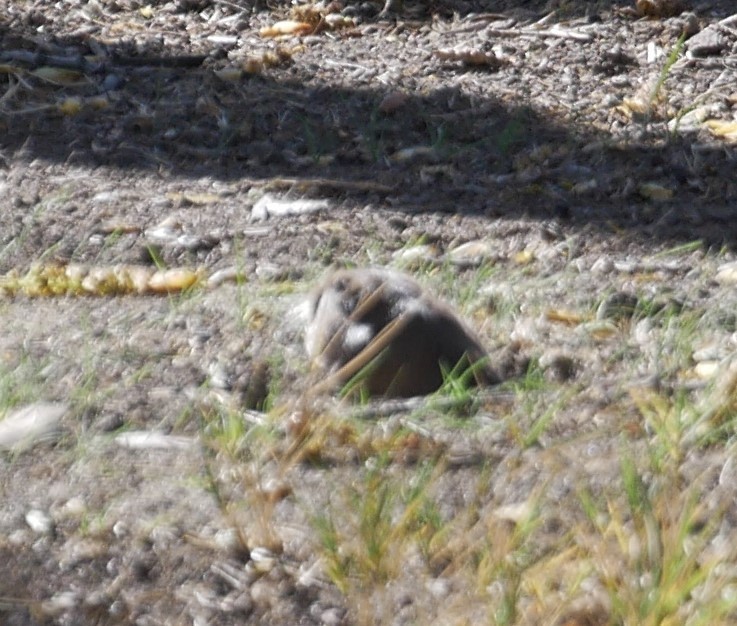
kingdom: Animalia
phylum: Chordata
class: Mammalia
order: Rodentia
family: Geomyidae
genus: Thomomys
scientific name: Thomomys bottae
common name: Botta's pocket gopher
